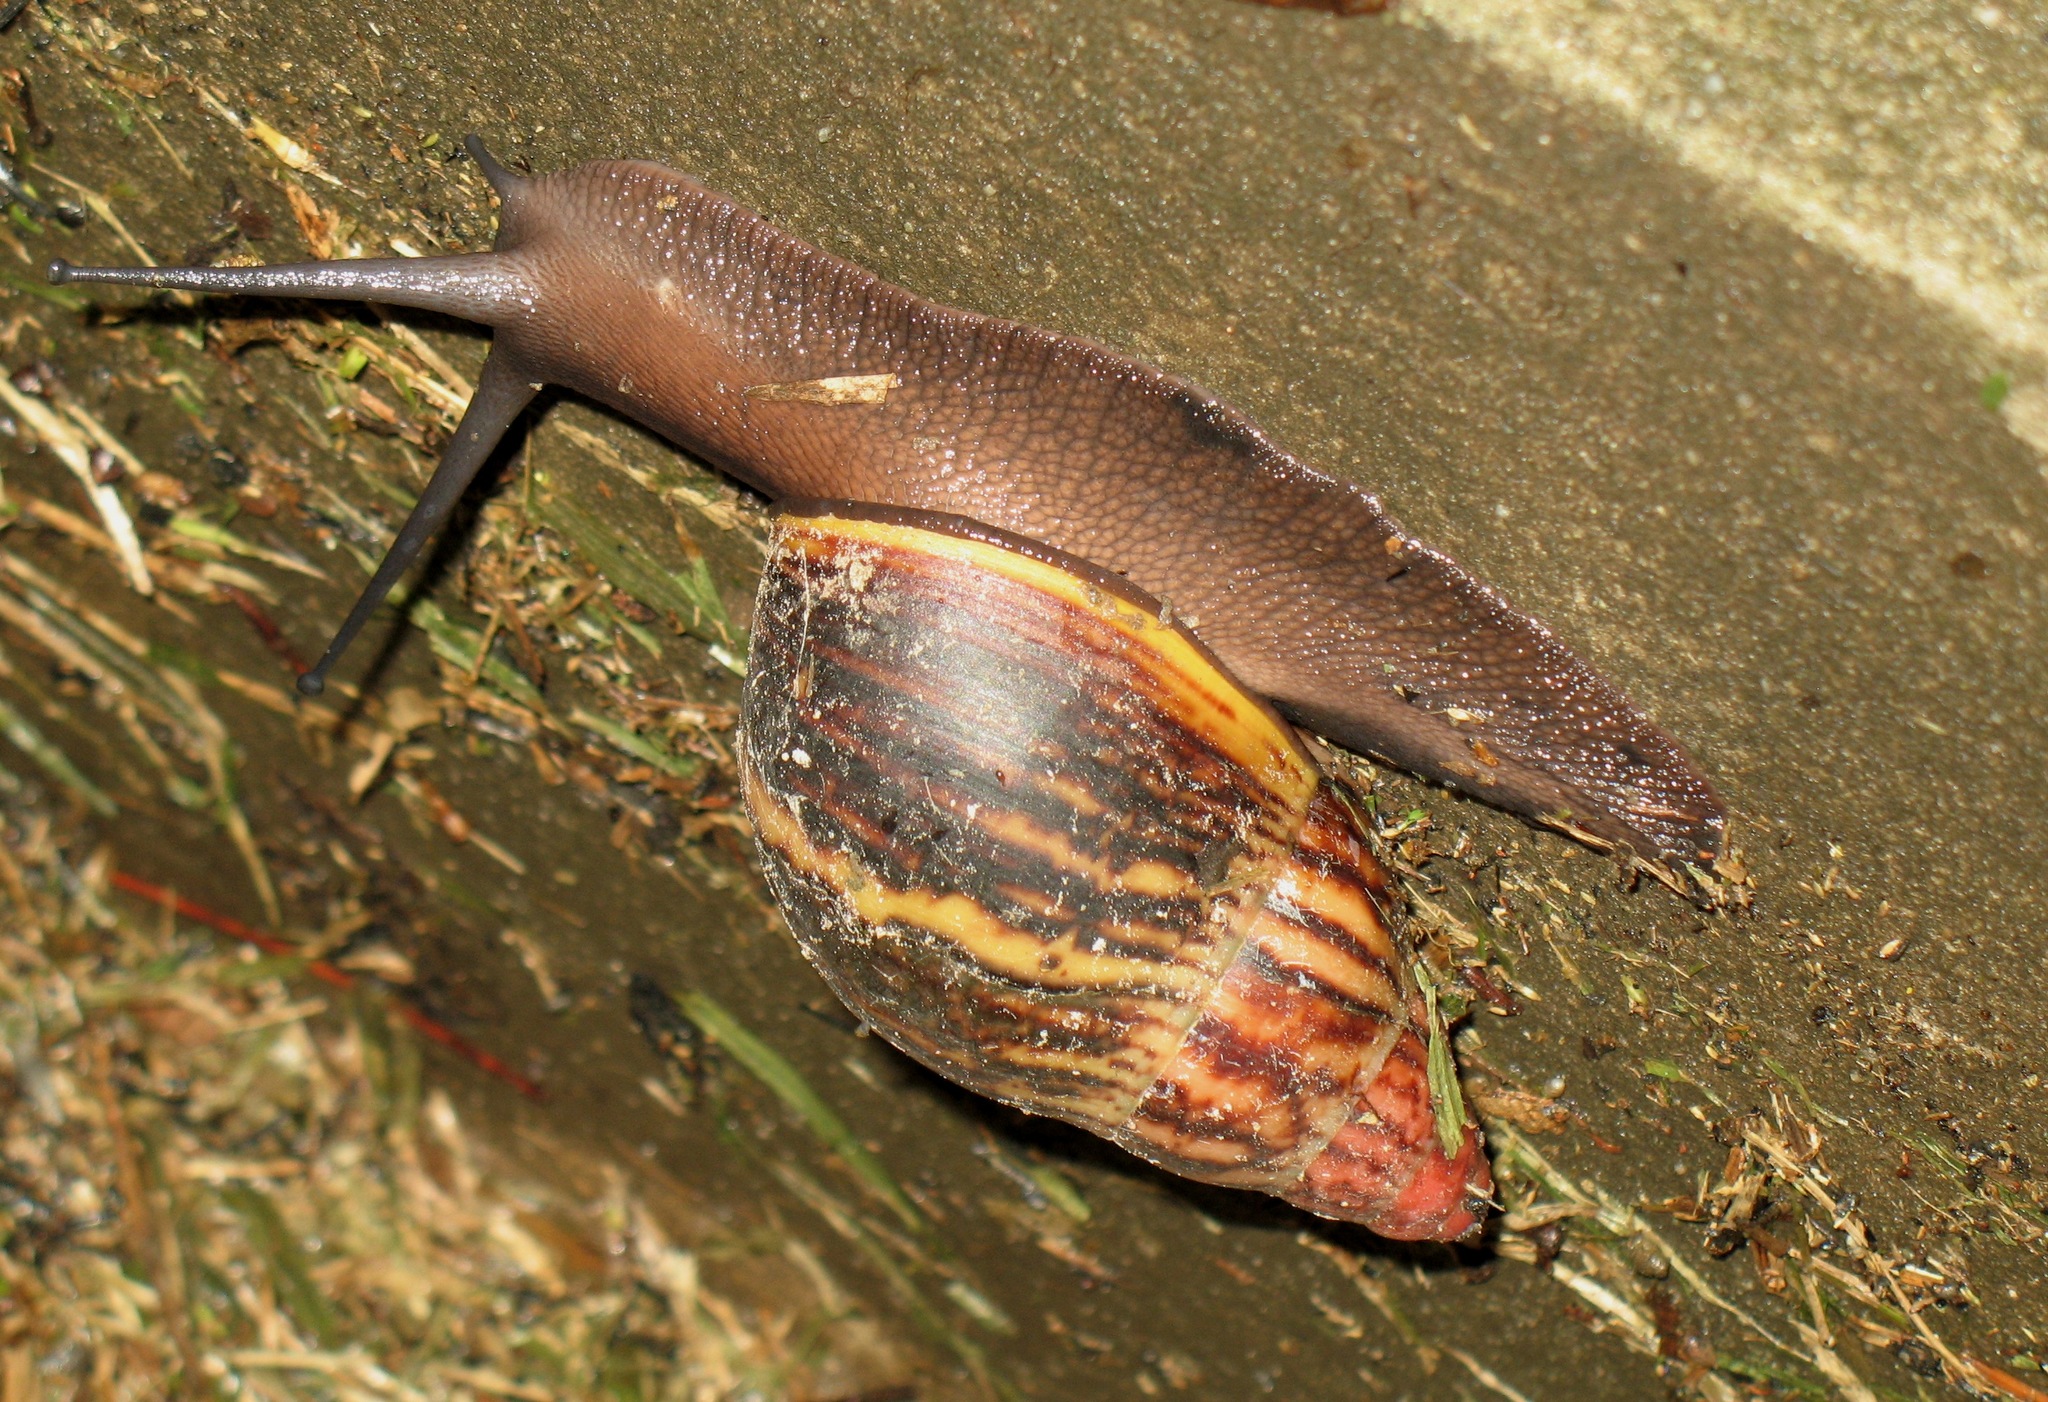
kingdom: Animalia
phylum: Mollusca
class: Gastropoda
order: Stylommatophora
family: Achatinidae
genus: Archachatina
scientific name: Archachatina marginata
